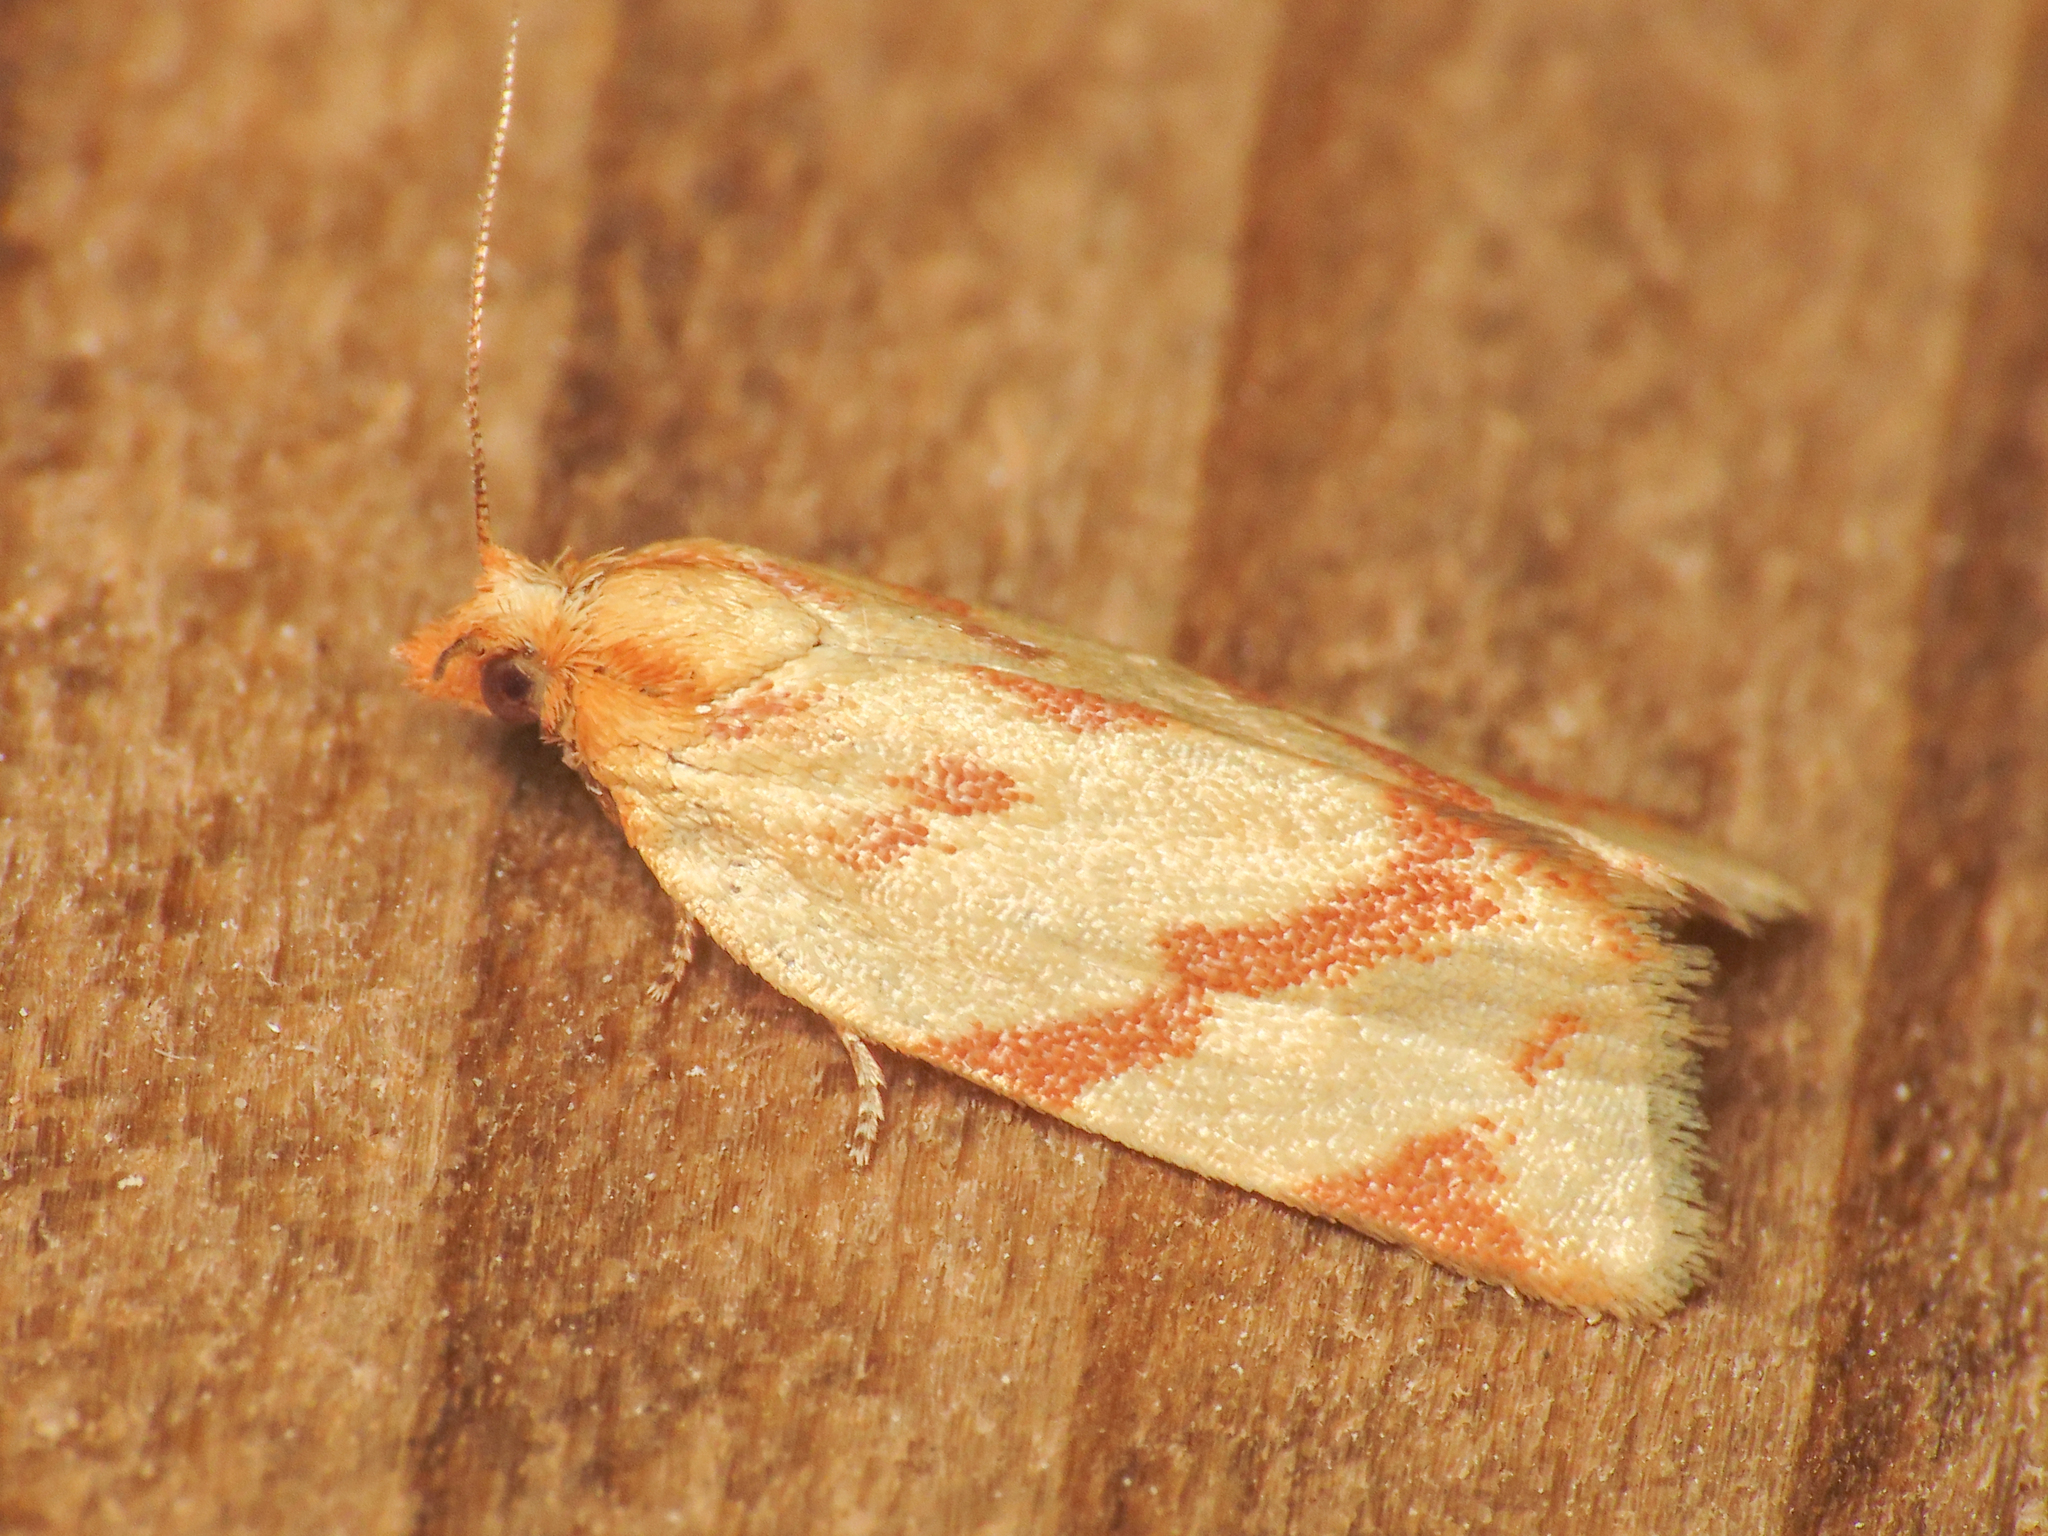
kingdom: Animalia
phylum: Arthropoda
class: Insecta
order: Lepidoptera
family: Tortricidae
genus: Clepsis
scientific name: Clepsis pallidana
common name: Sheep's-bit conch
